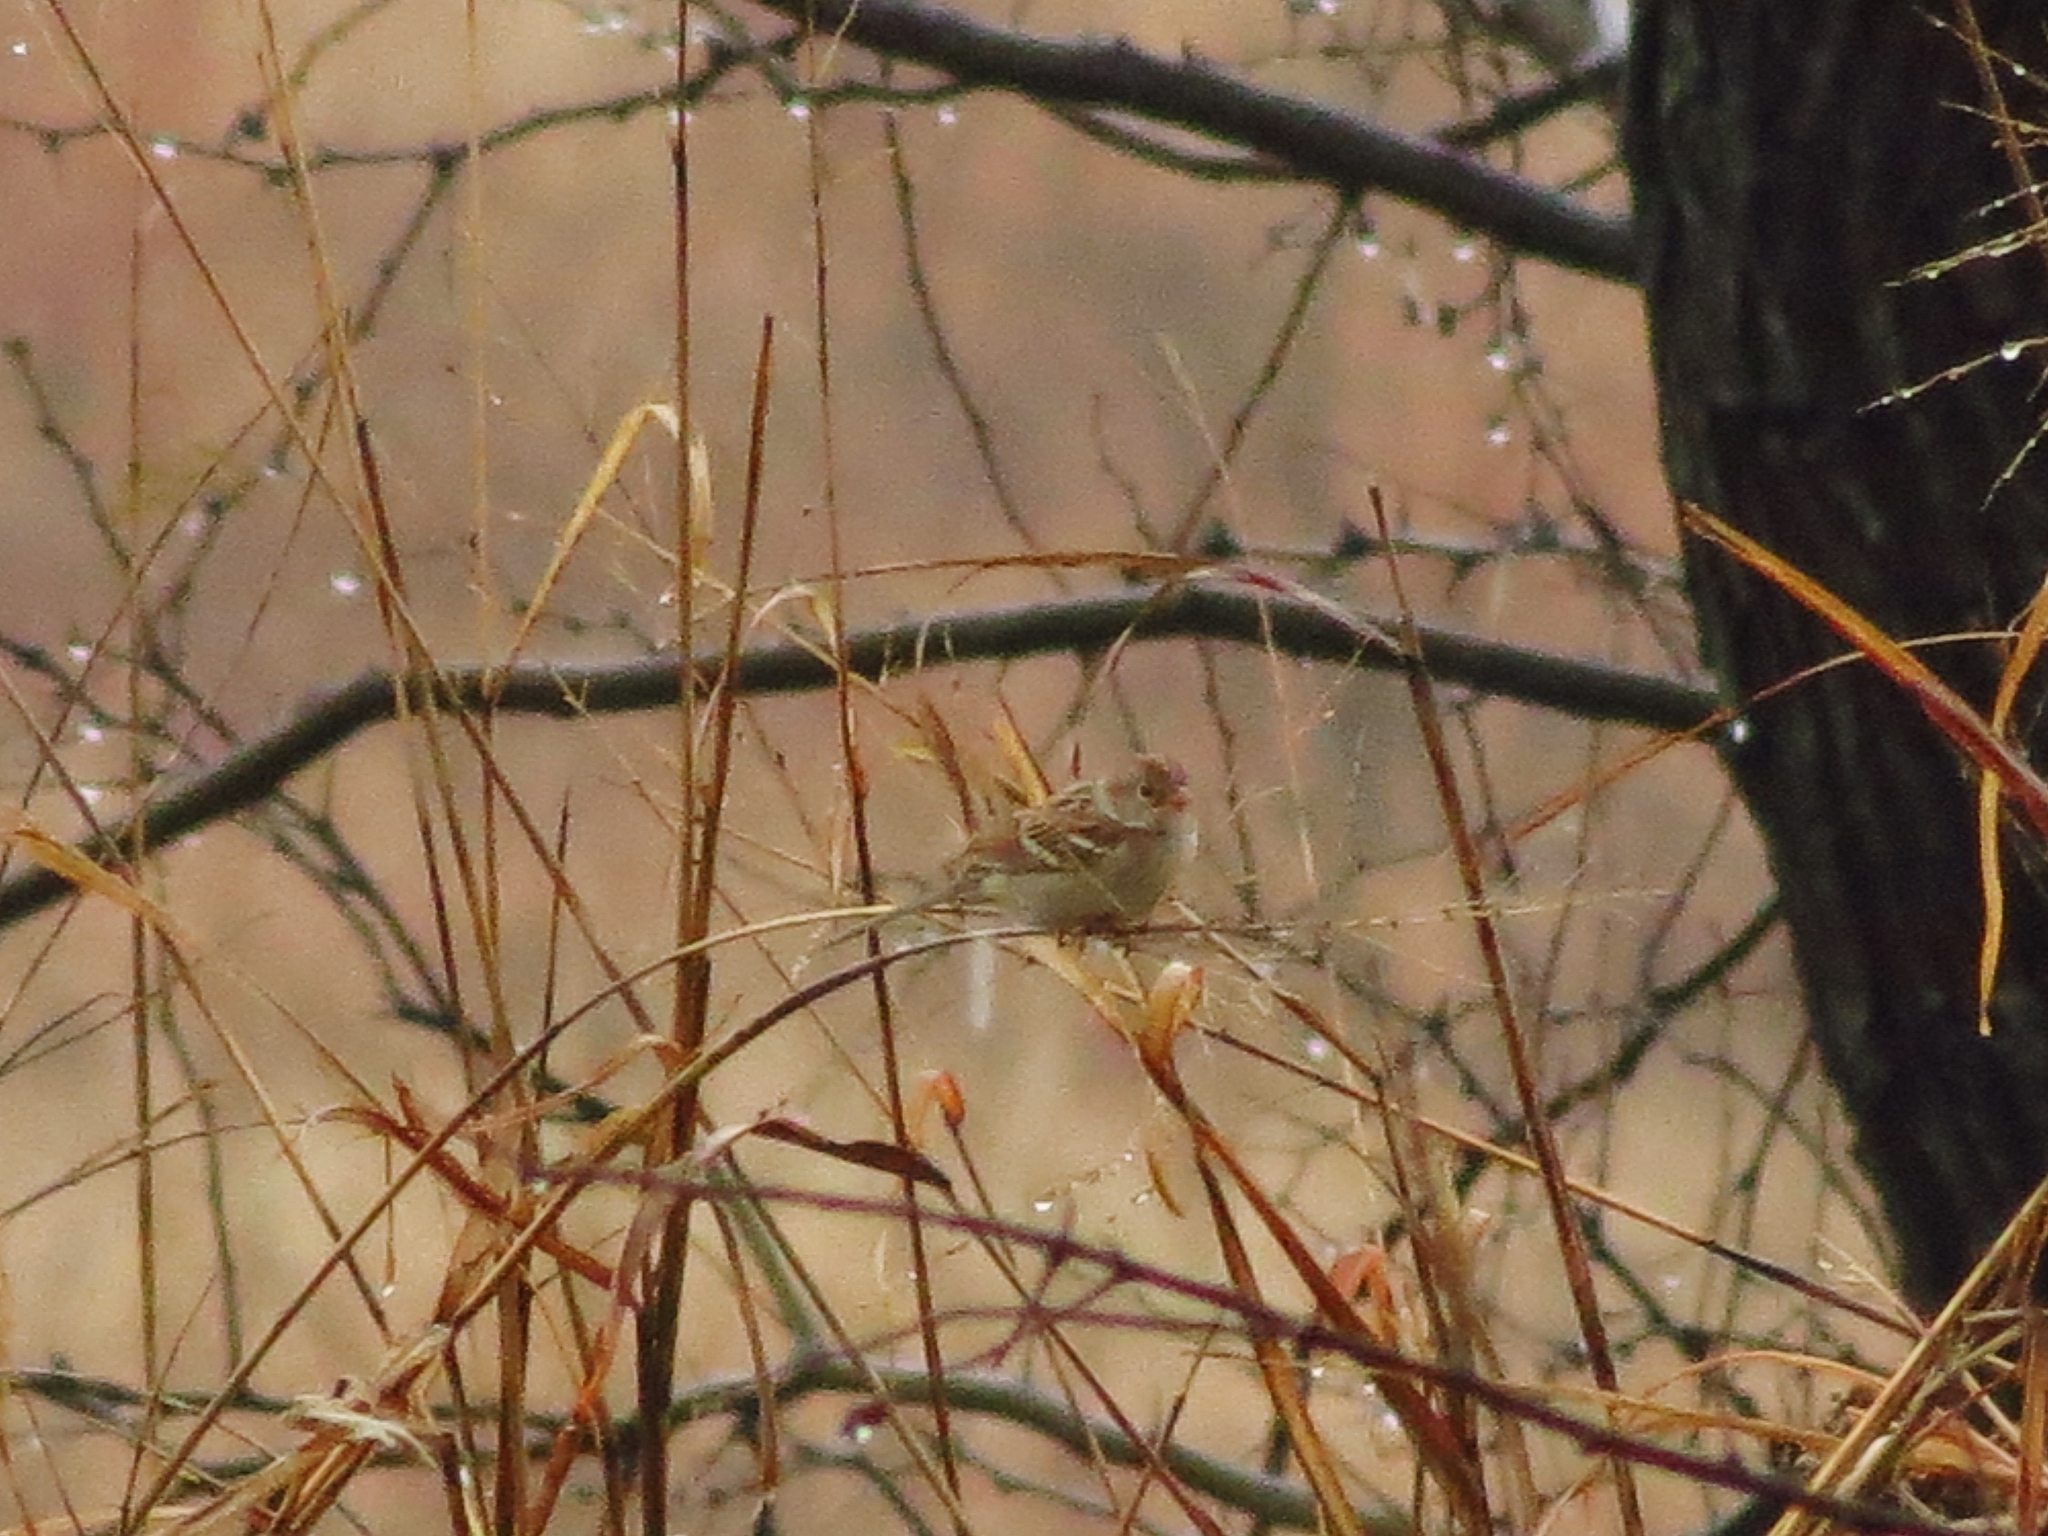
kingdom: Animalia
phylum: Chordata
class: Aves
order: Passeriformes
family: Passerellidae
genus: Spizella
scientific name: Spizella pusilla
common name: Field sparrow
